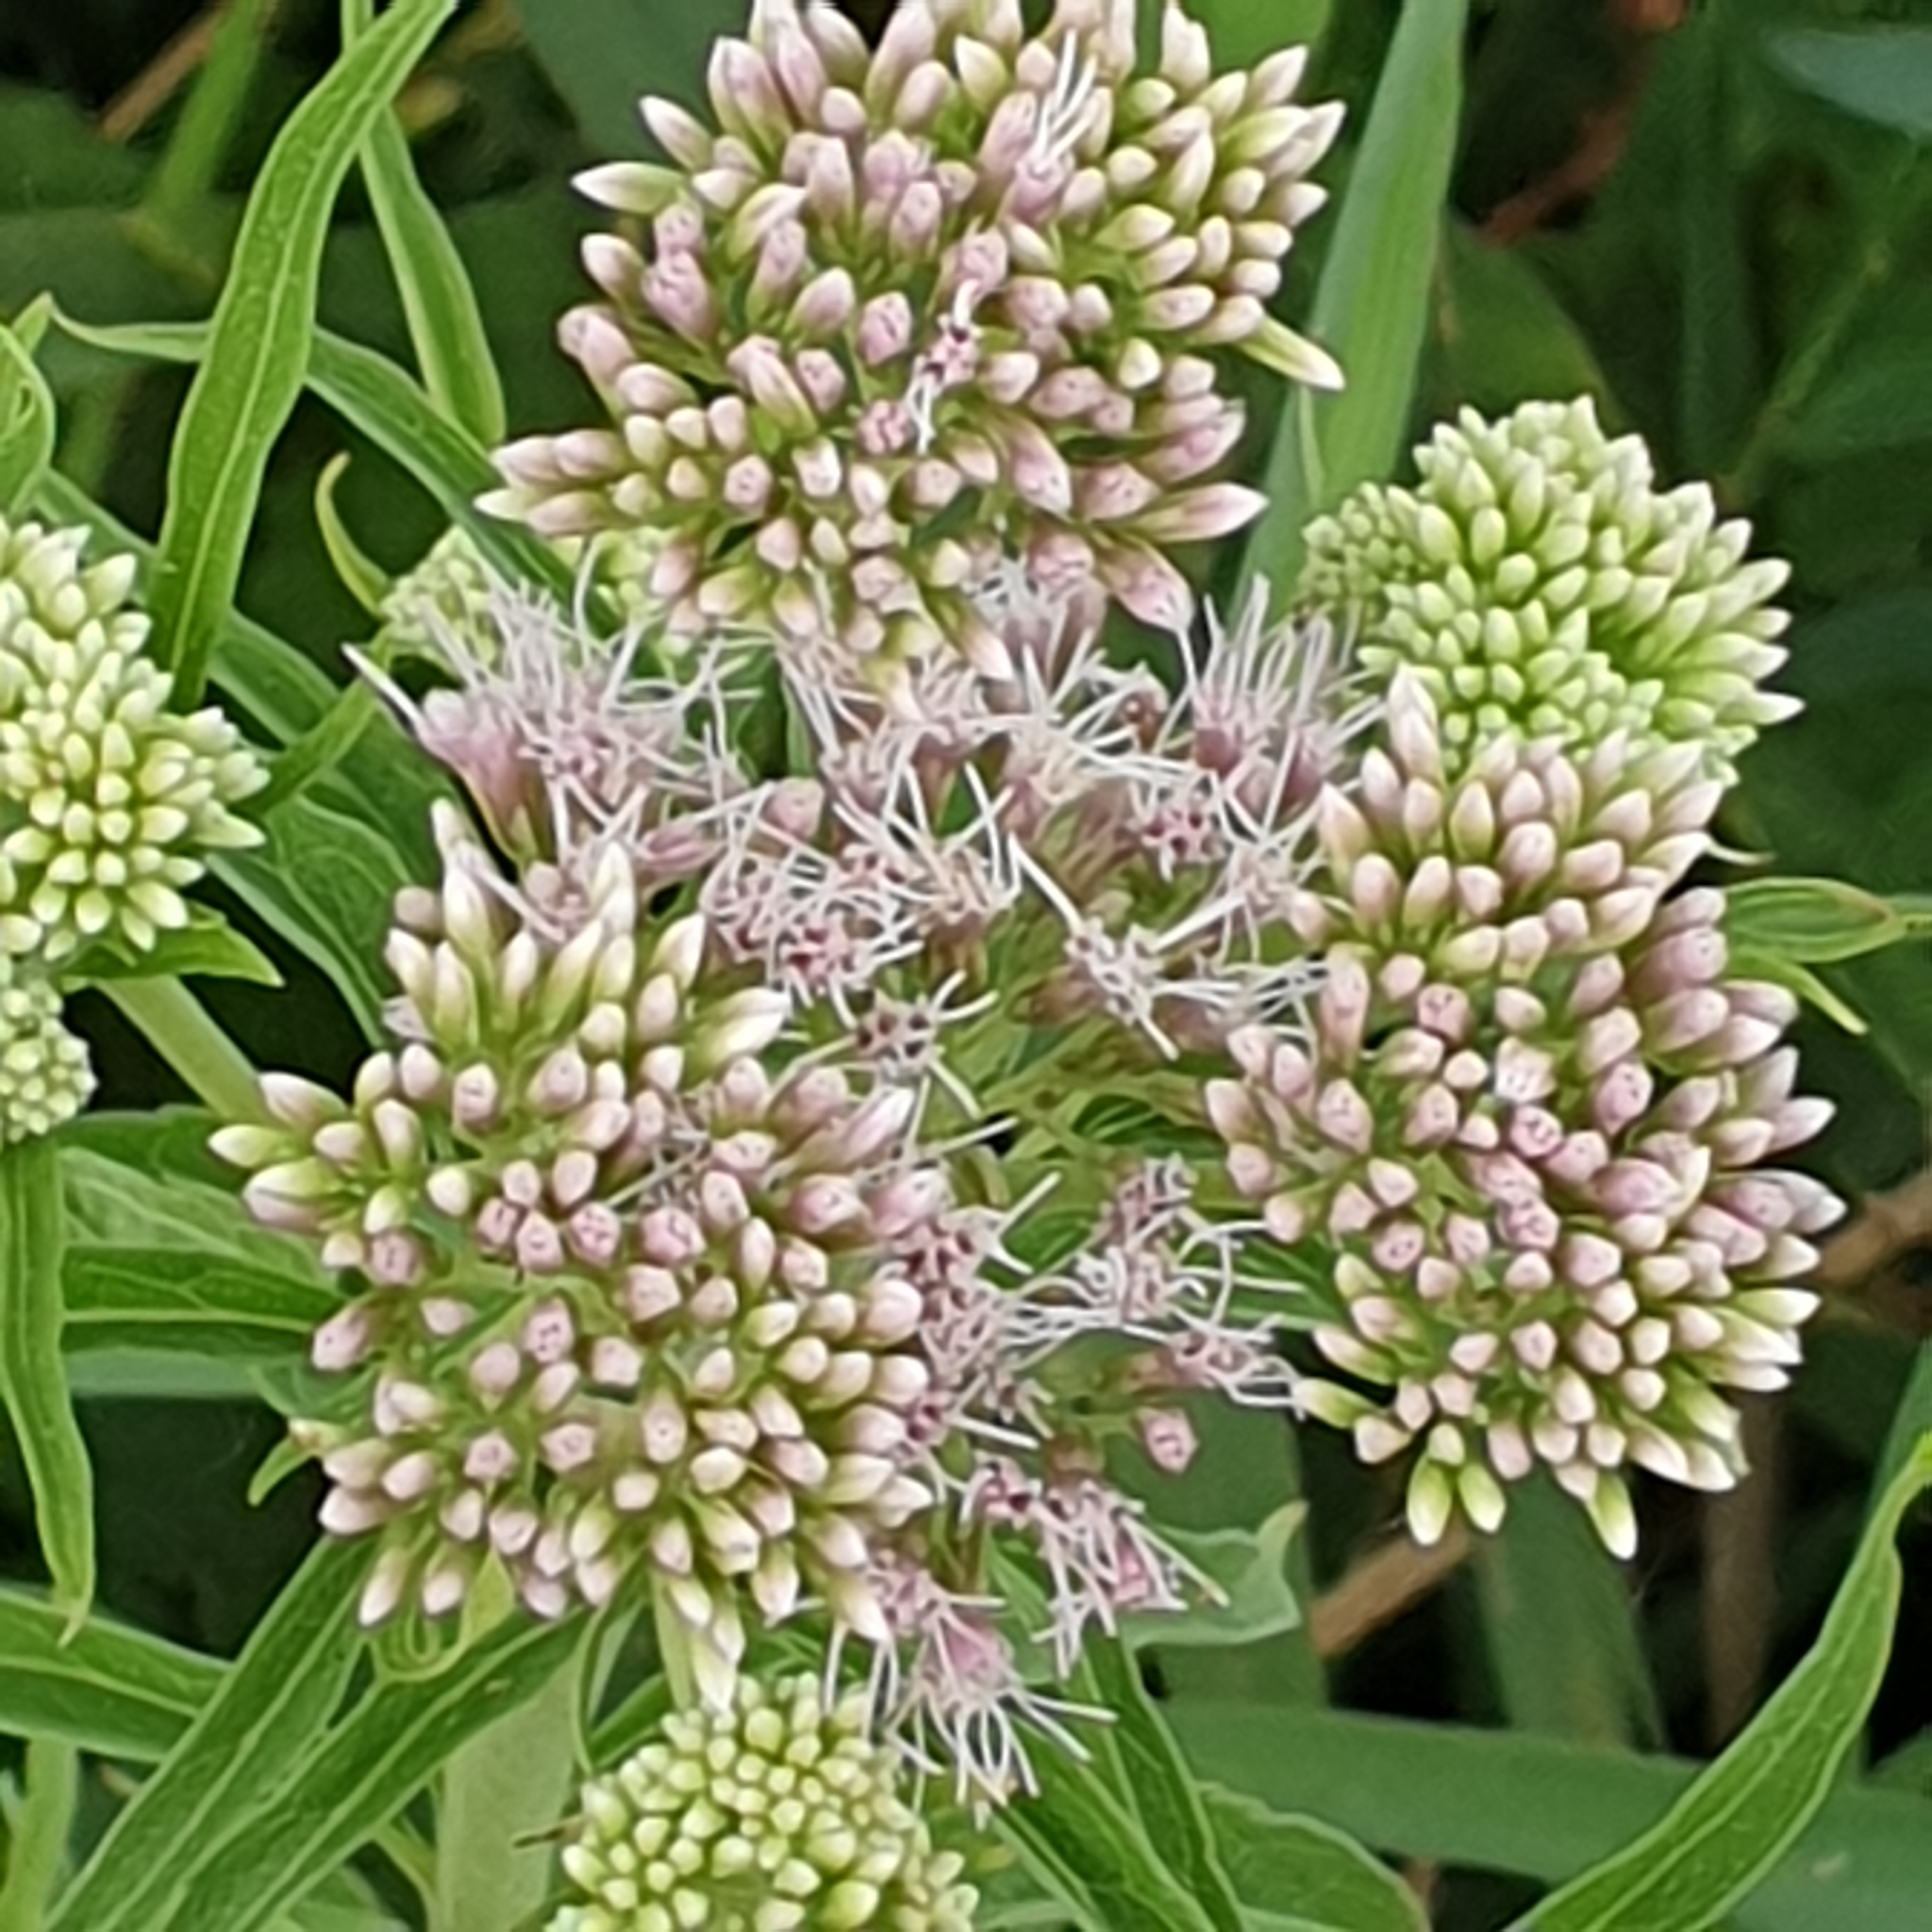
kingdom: Plantae
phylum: Tracheophyta
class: Magnoliopsida
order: Asterales
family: Asteraceae
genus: Eupatorium
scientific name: Eupatorium cannabinum
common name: Hemp-agrimony
